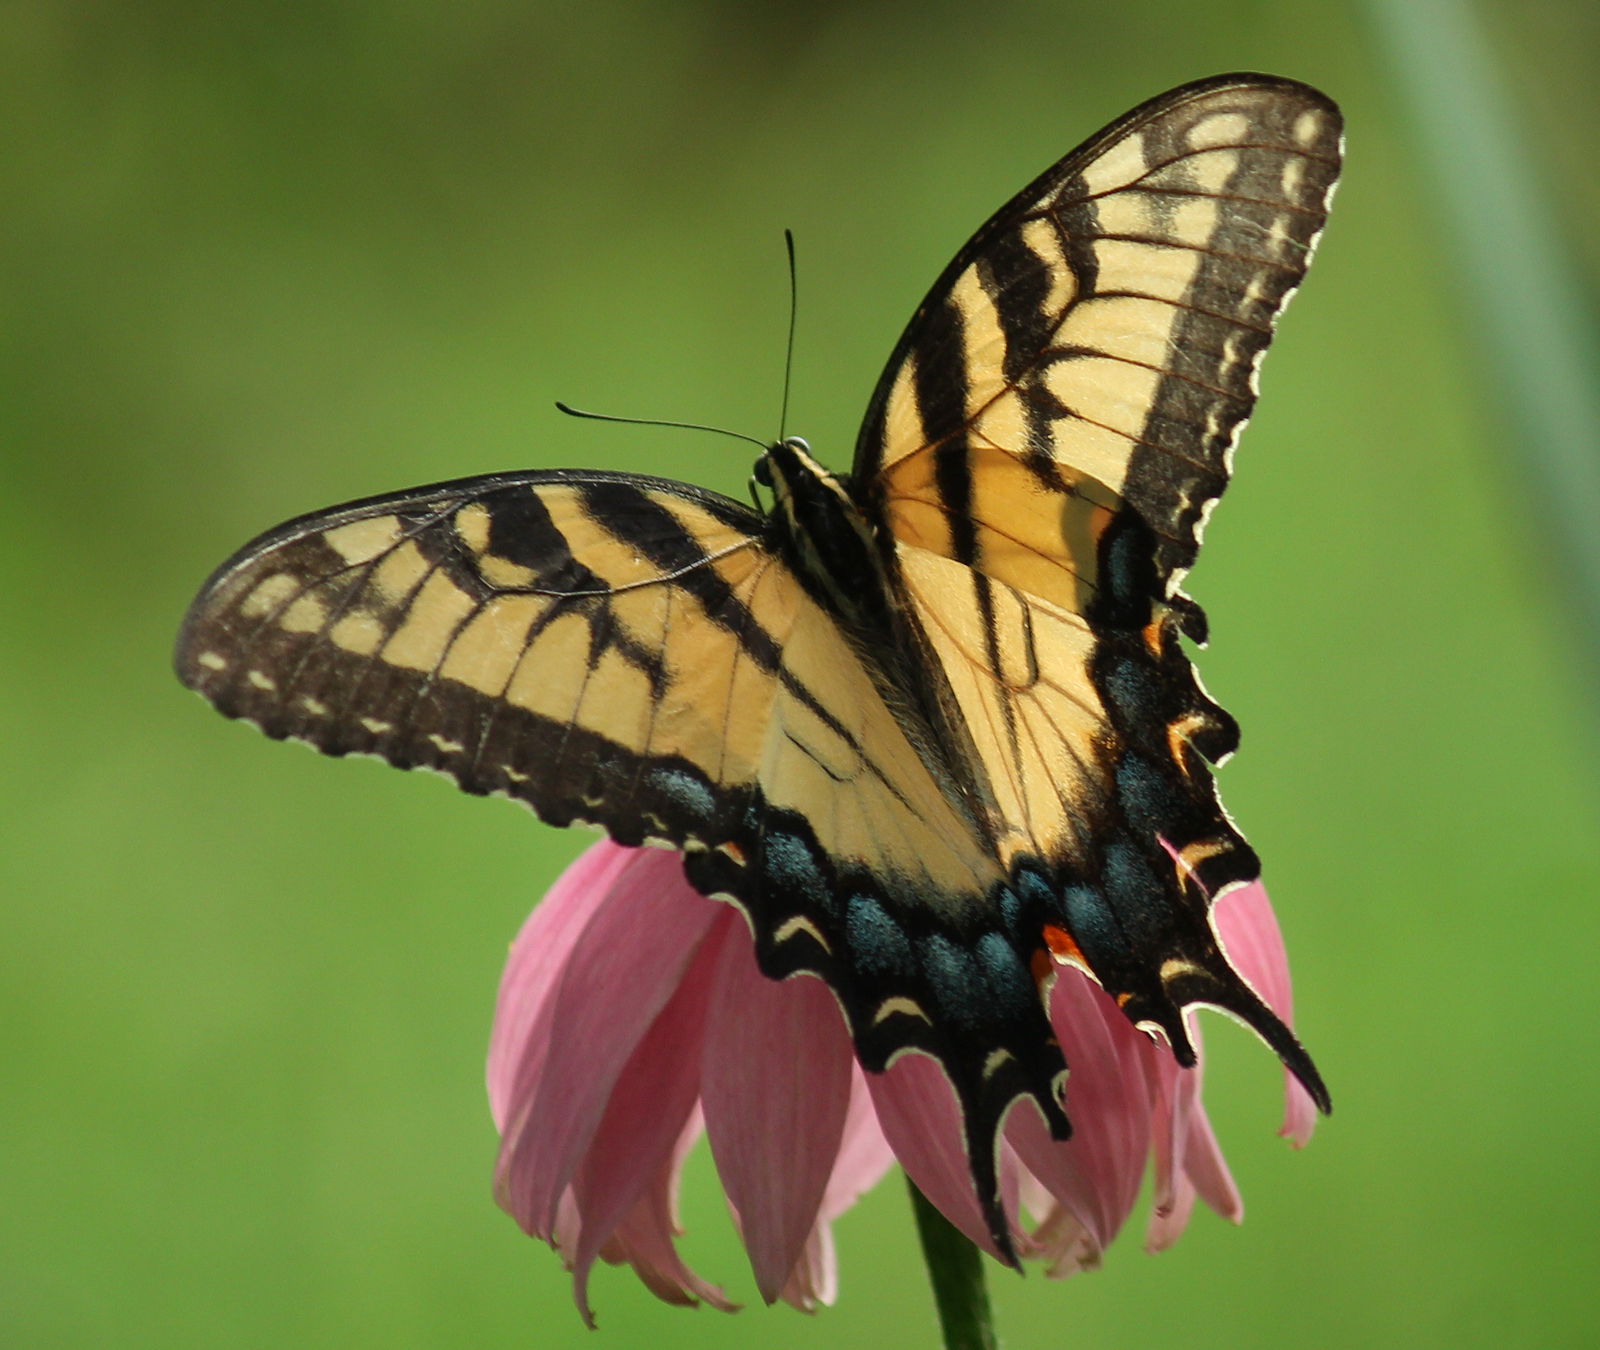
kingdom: Animalia
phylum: Arthropoda
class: Insecta
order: Lepidoptera
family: Papilionidae
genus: Papilio
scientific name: Papilio glaucus
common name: Tiger swallowtail
